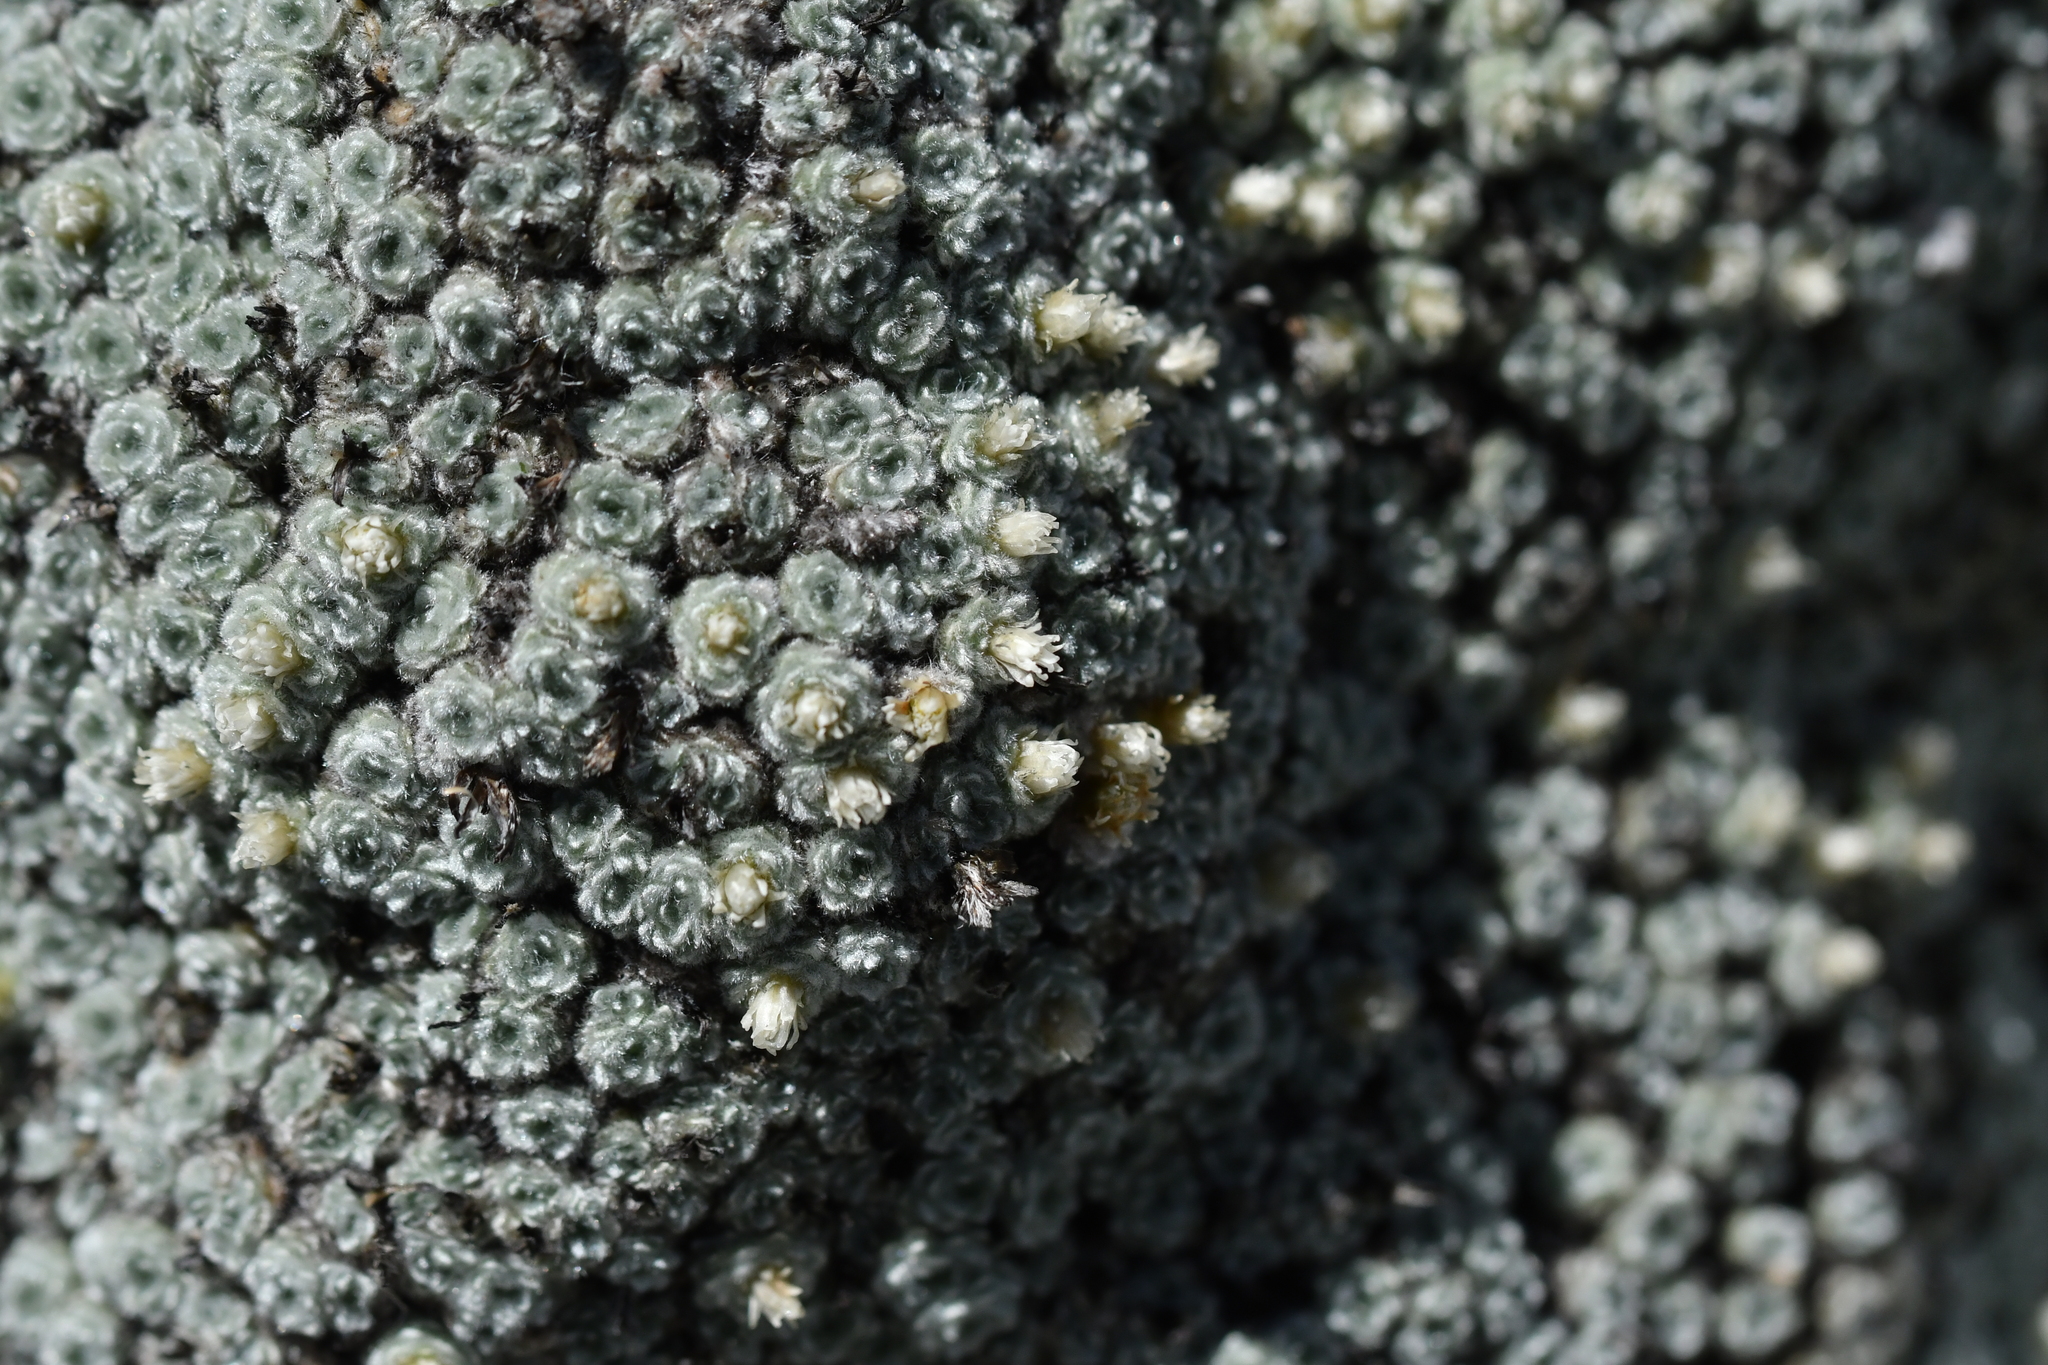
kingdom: Plantae
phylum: Tracheophyta
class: Magnoliopsida
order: Asterales
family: Asteraceae
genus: Raoulia
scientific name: Raoulia mammillaris
